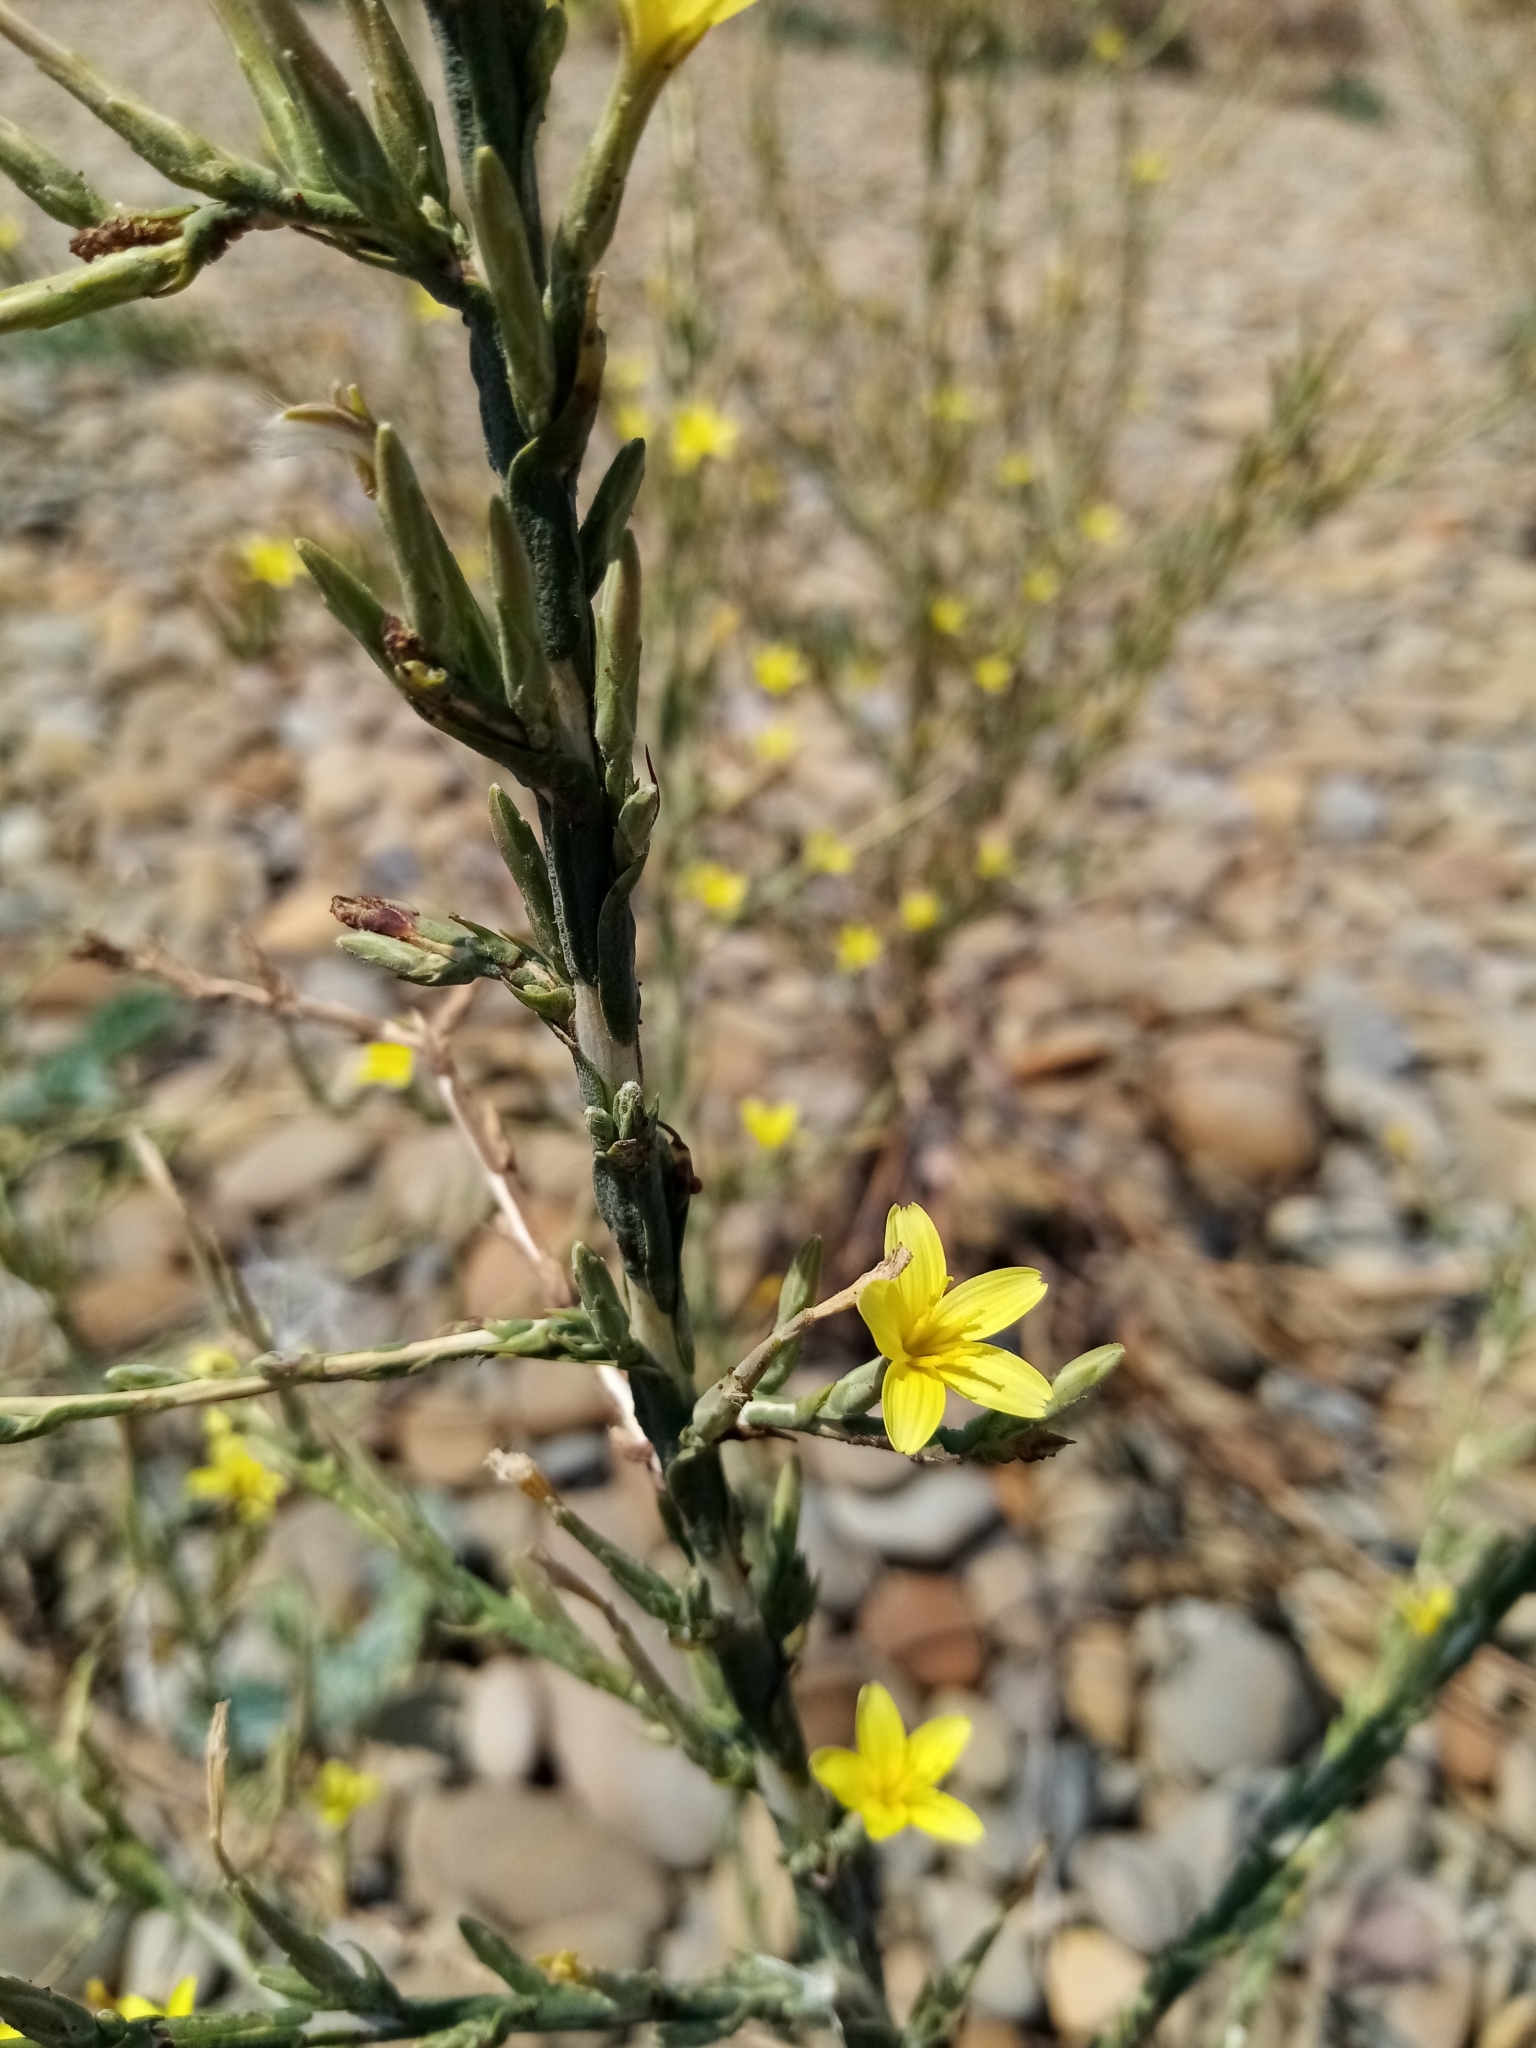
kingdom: Plantae
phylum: Tracheophyta
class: Magnoliopsida
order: Asterales
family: Asteraceae
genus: Lactuca
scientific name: Lactuca viminea
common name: Pliant lettuce
